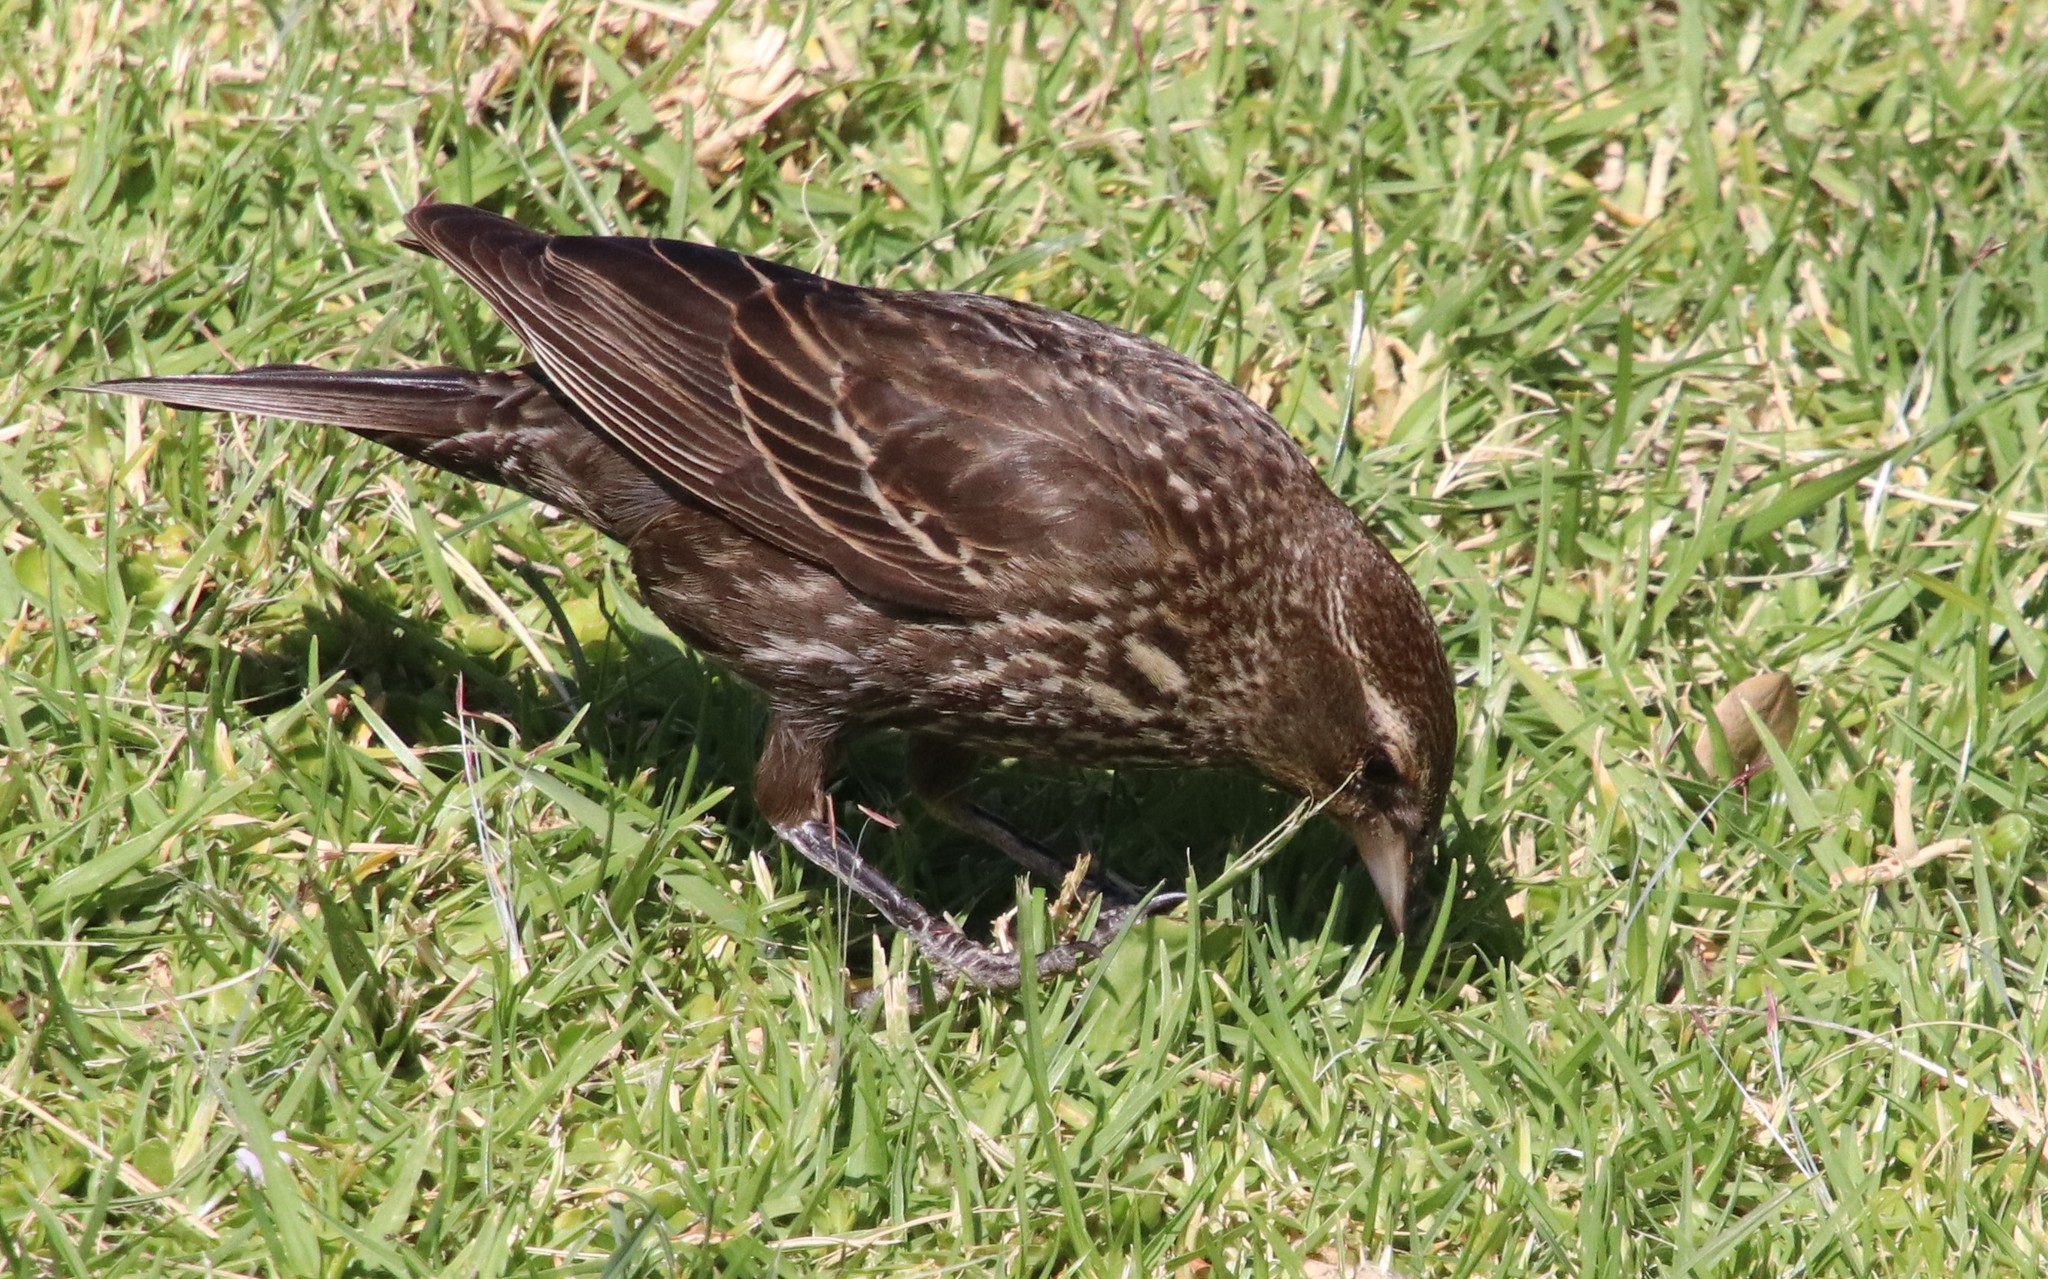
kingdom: Animalia
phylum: Chordata
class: Aves
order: Passeriformes
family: Icteridae
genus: Agelaius
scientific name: Agelaius phoeniceus
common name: Red-winged blackbird
